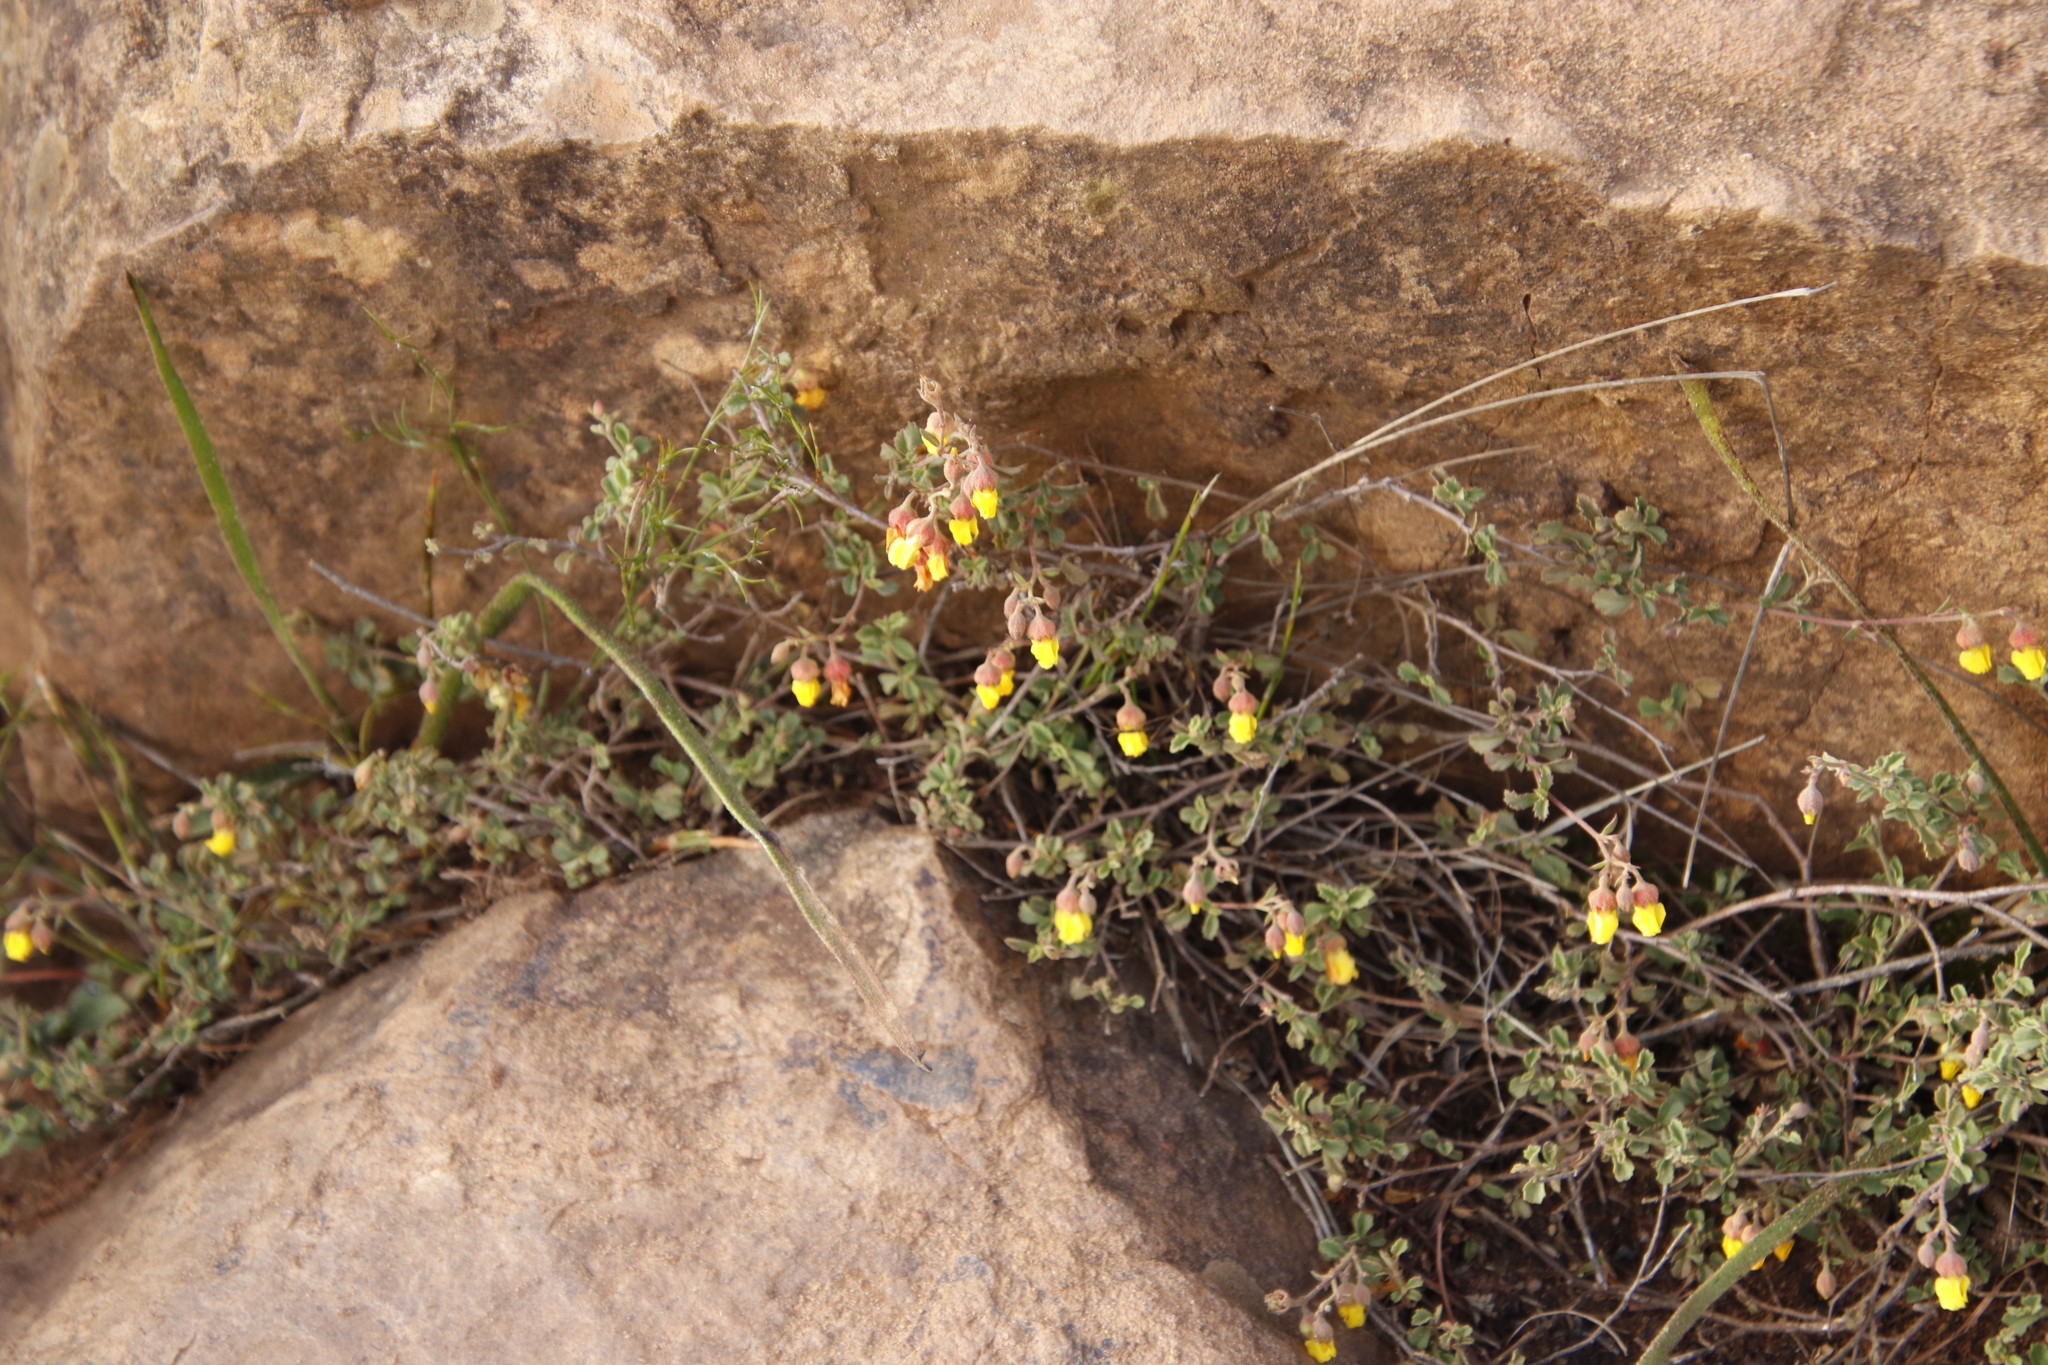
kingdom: Plantae
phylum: Tracheophyta
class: Magnoliopsida
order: Malvales
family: Malvaceae
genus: Hermannia
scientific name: Hermannia multiflora
